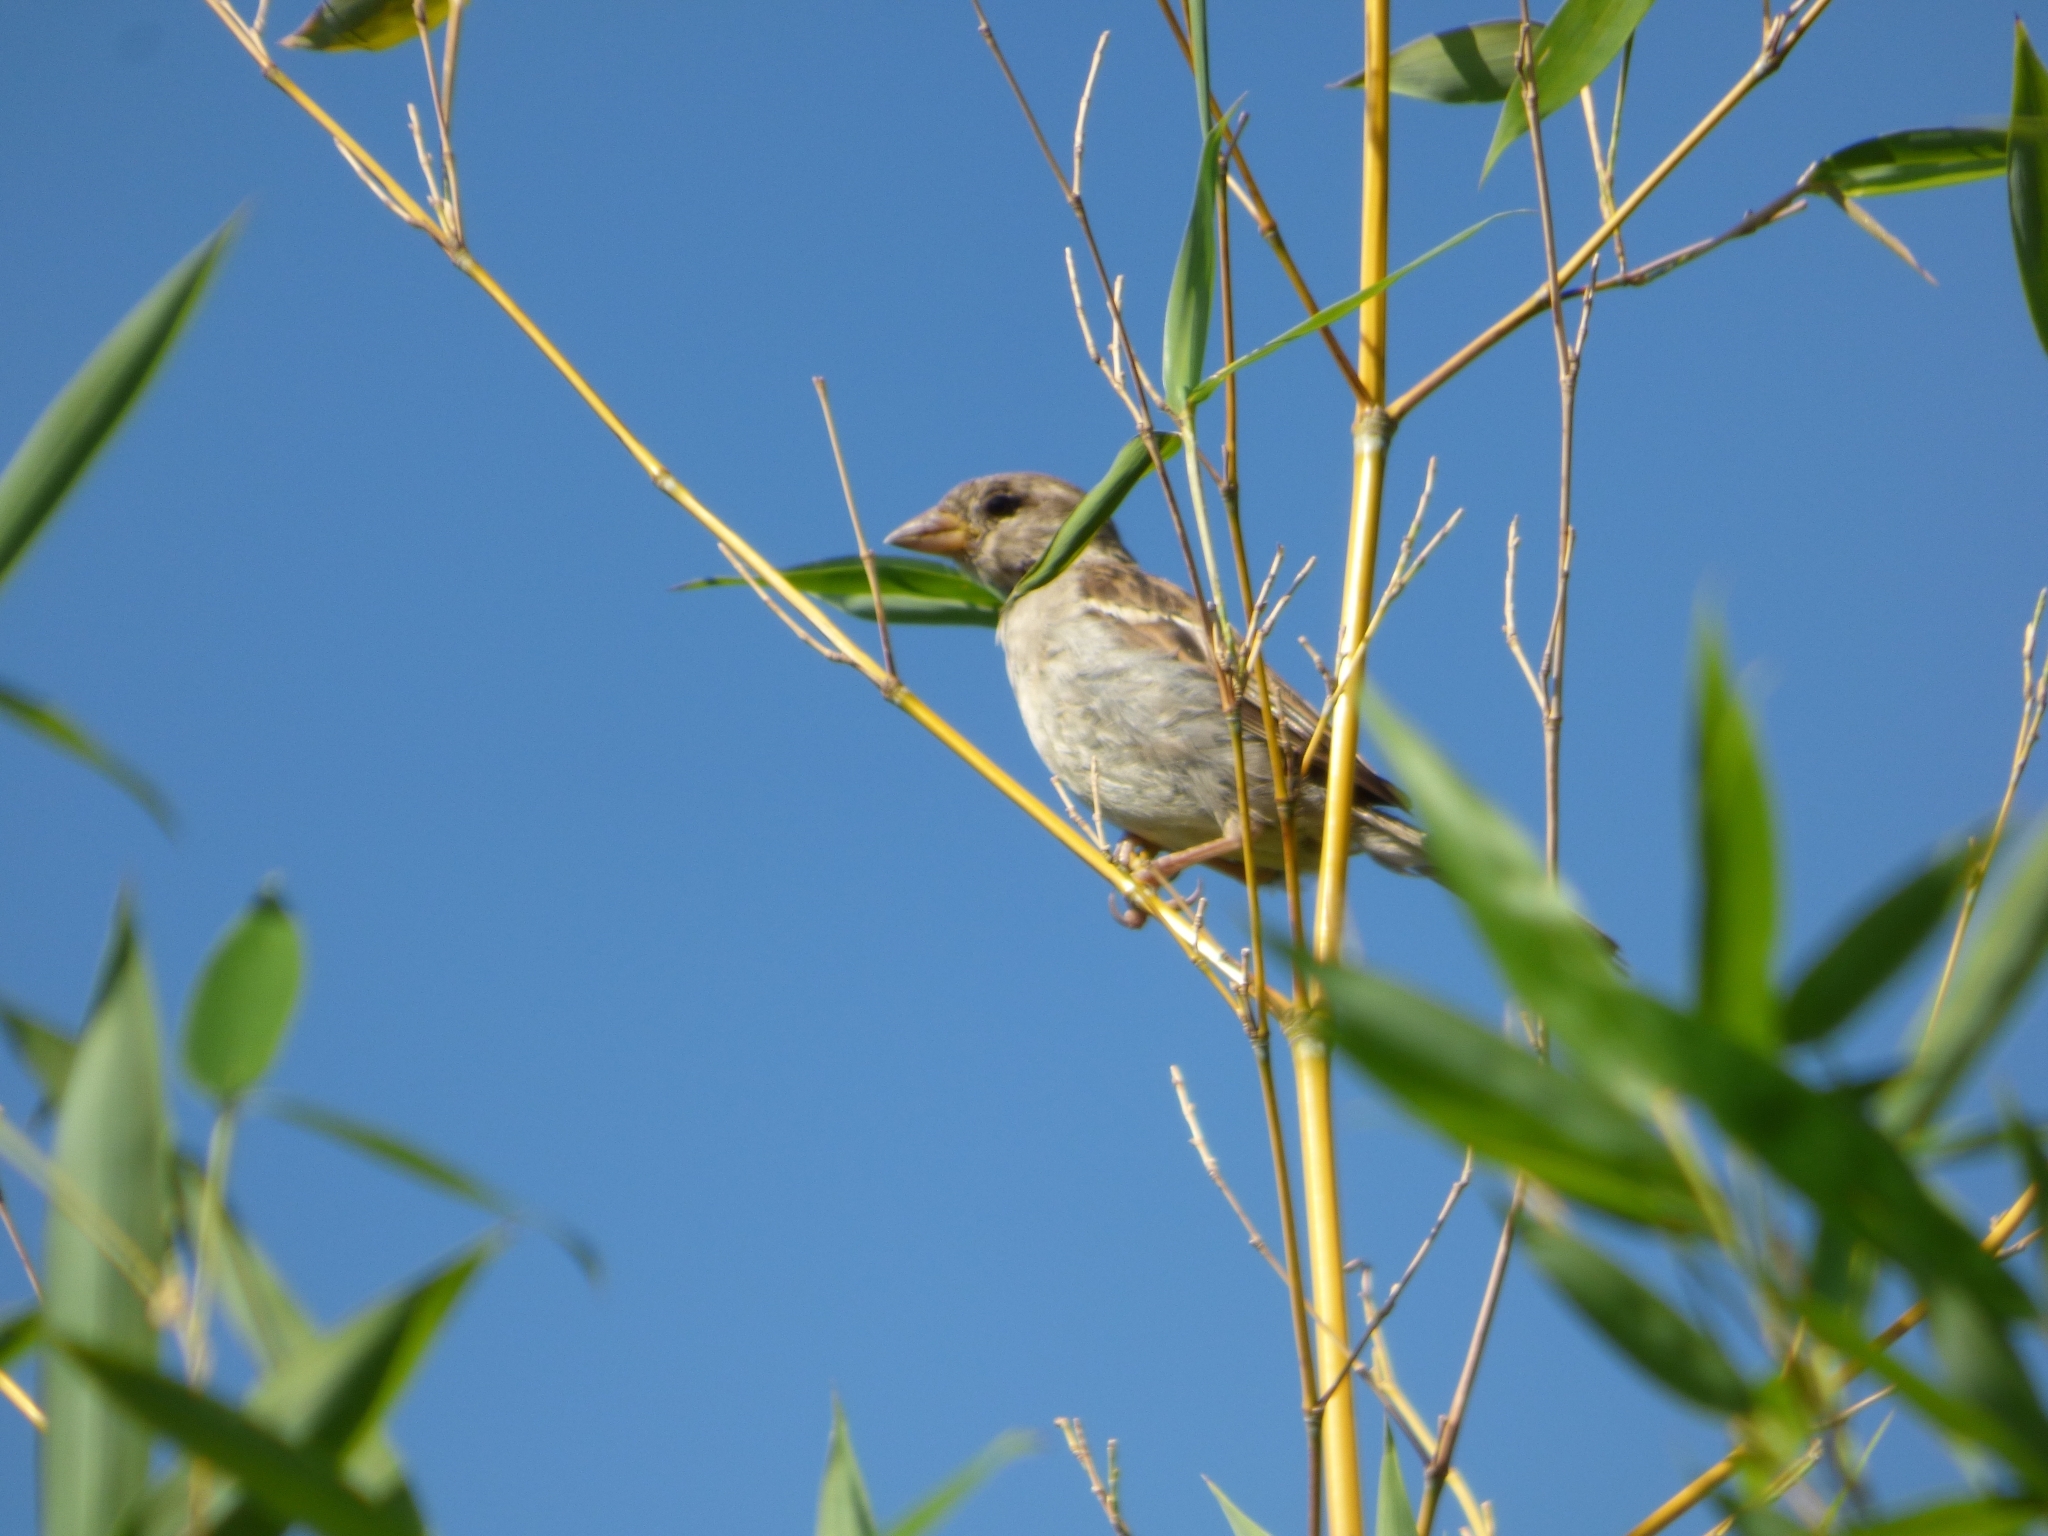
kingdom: Animalia
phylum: Chordata
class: Aves
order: Passeriformes
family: Passeridae
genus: Passer
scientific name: Passer domesticus
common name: House sparrow
